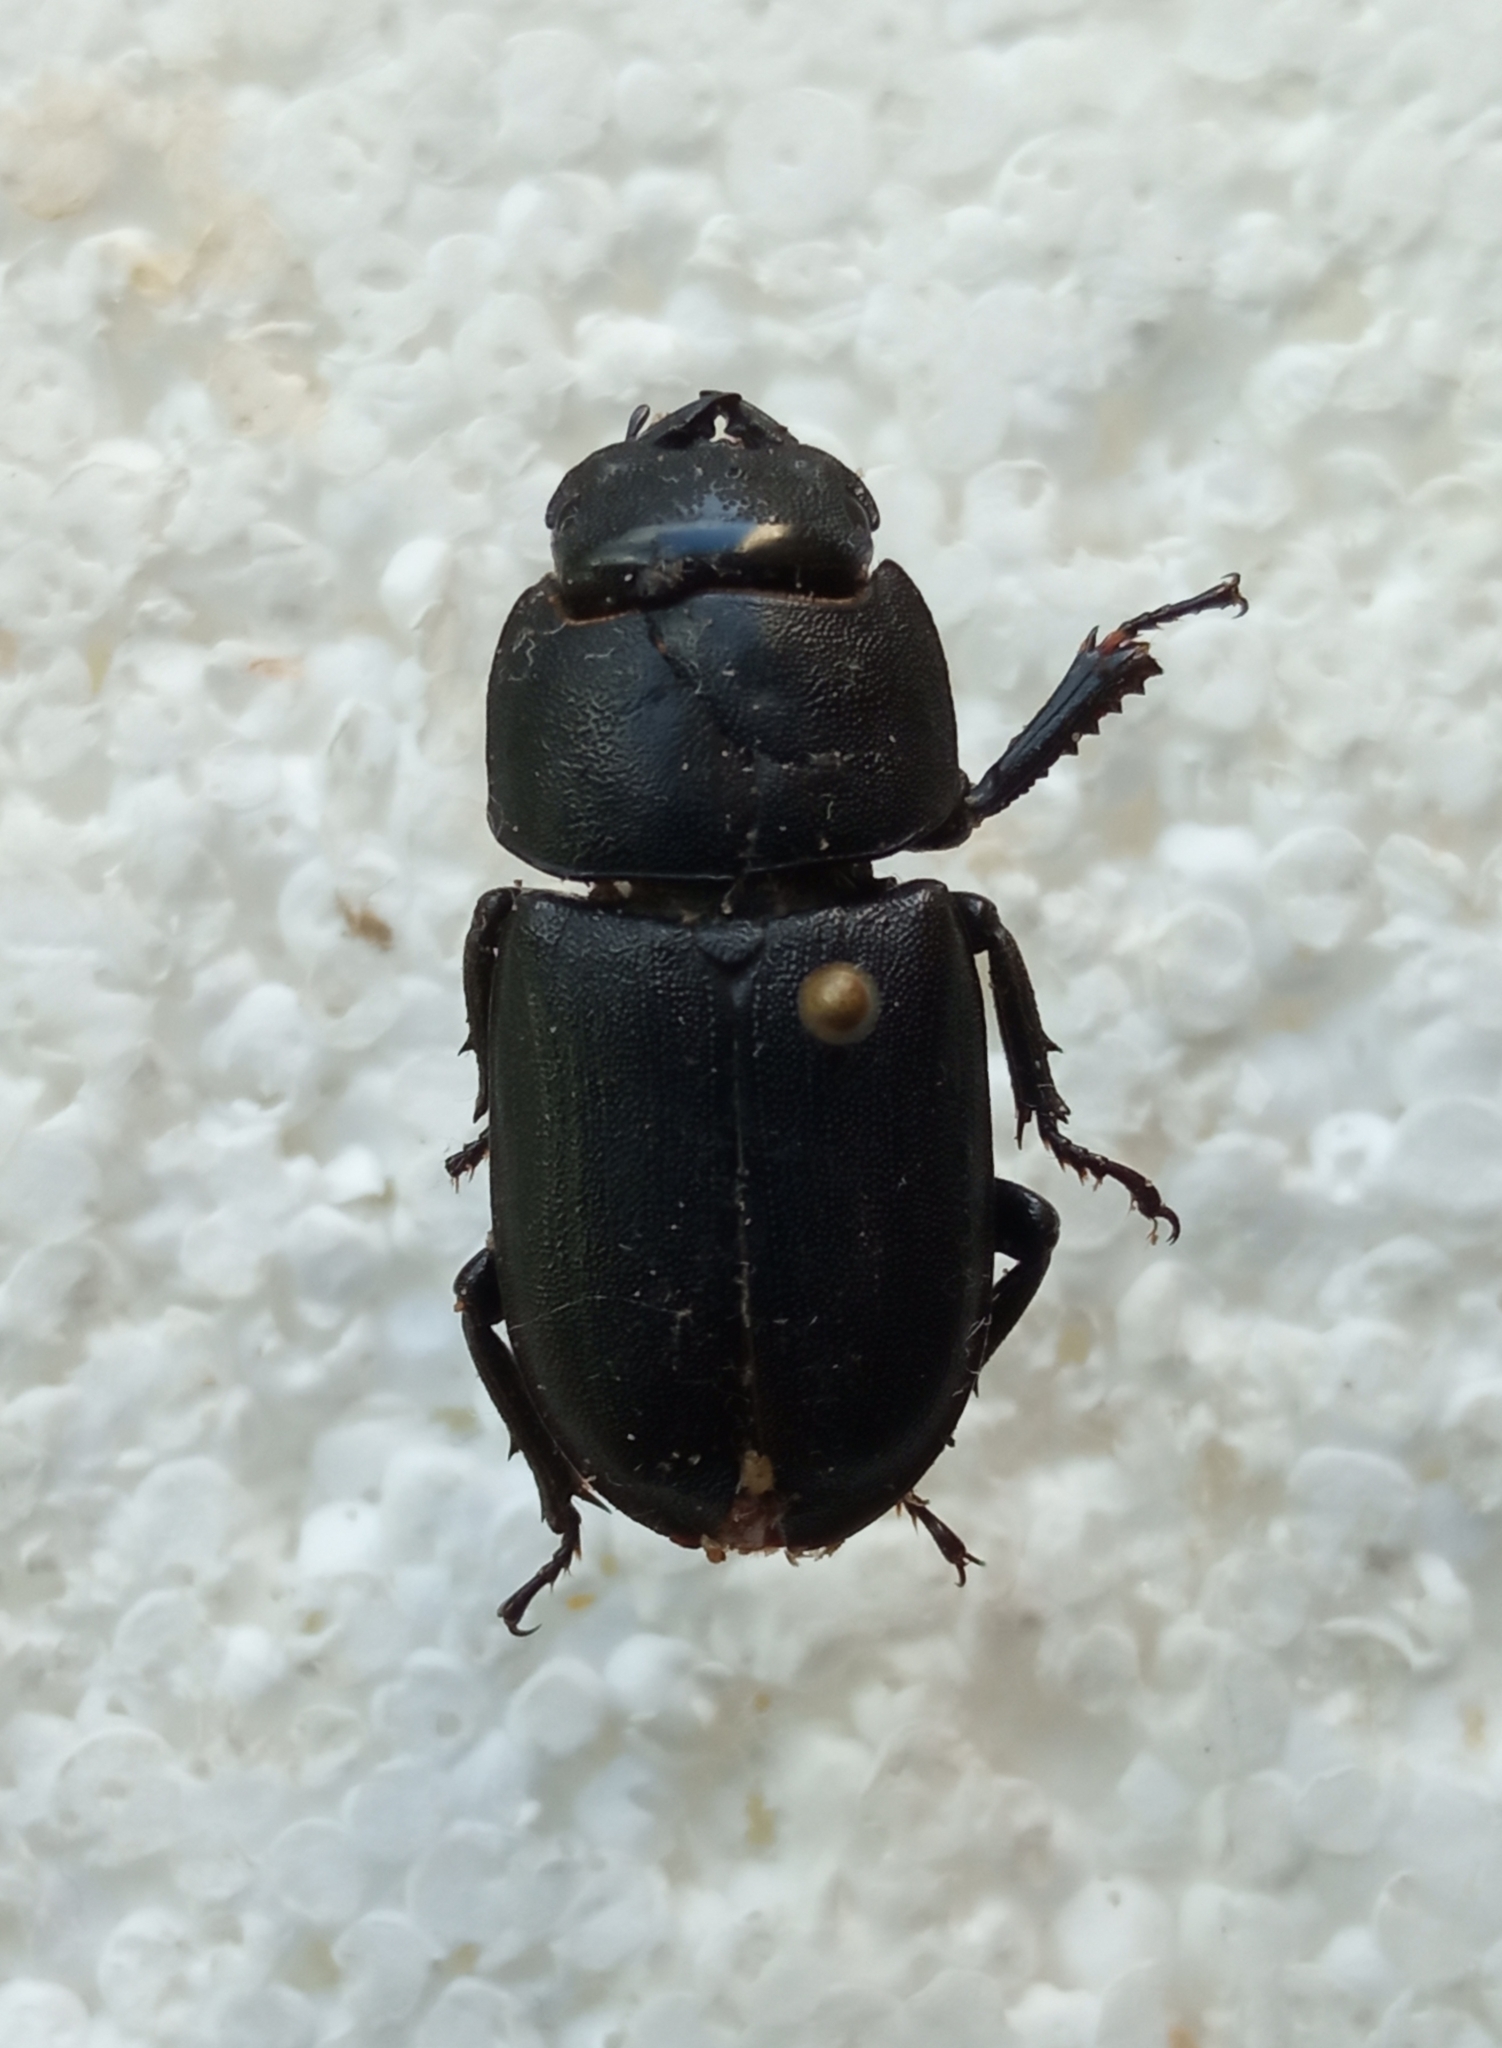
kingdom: Animalia
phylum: Arthropoda
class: Insecta
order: Coleoptera
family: Lucanidae
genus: Dorcus
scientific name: Dorcus parallelipipedus
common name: Lesser stag beetle
